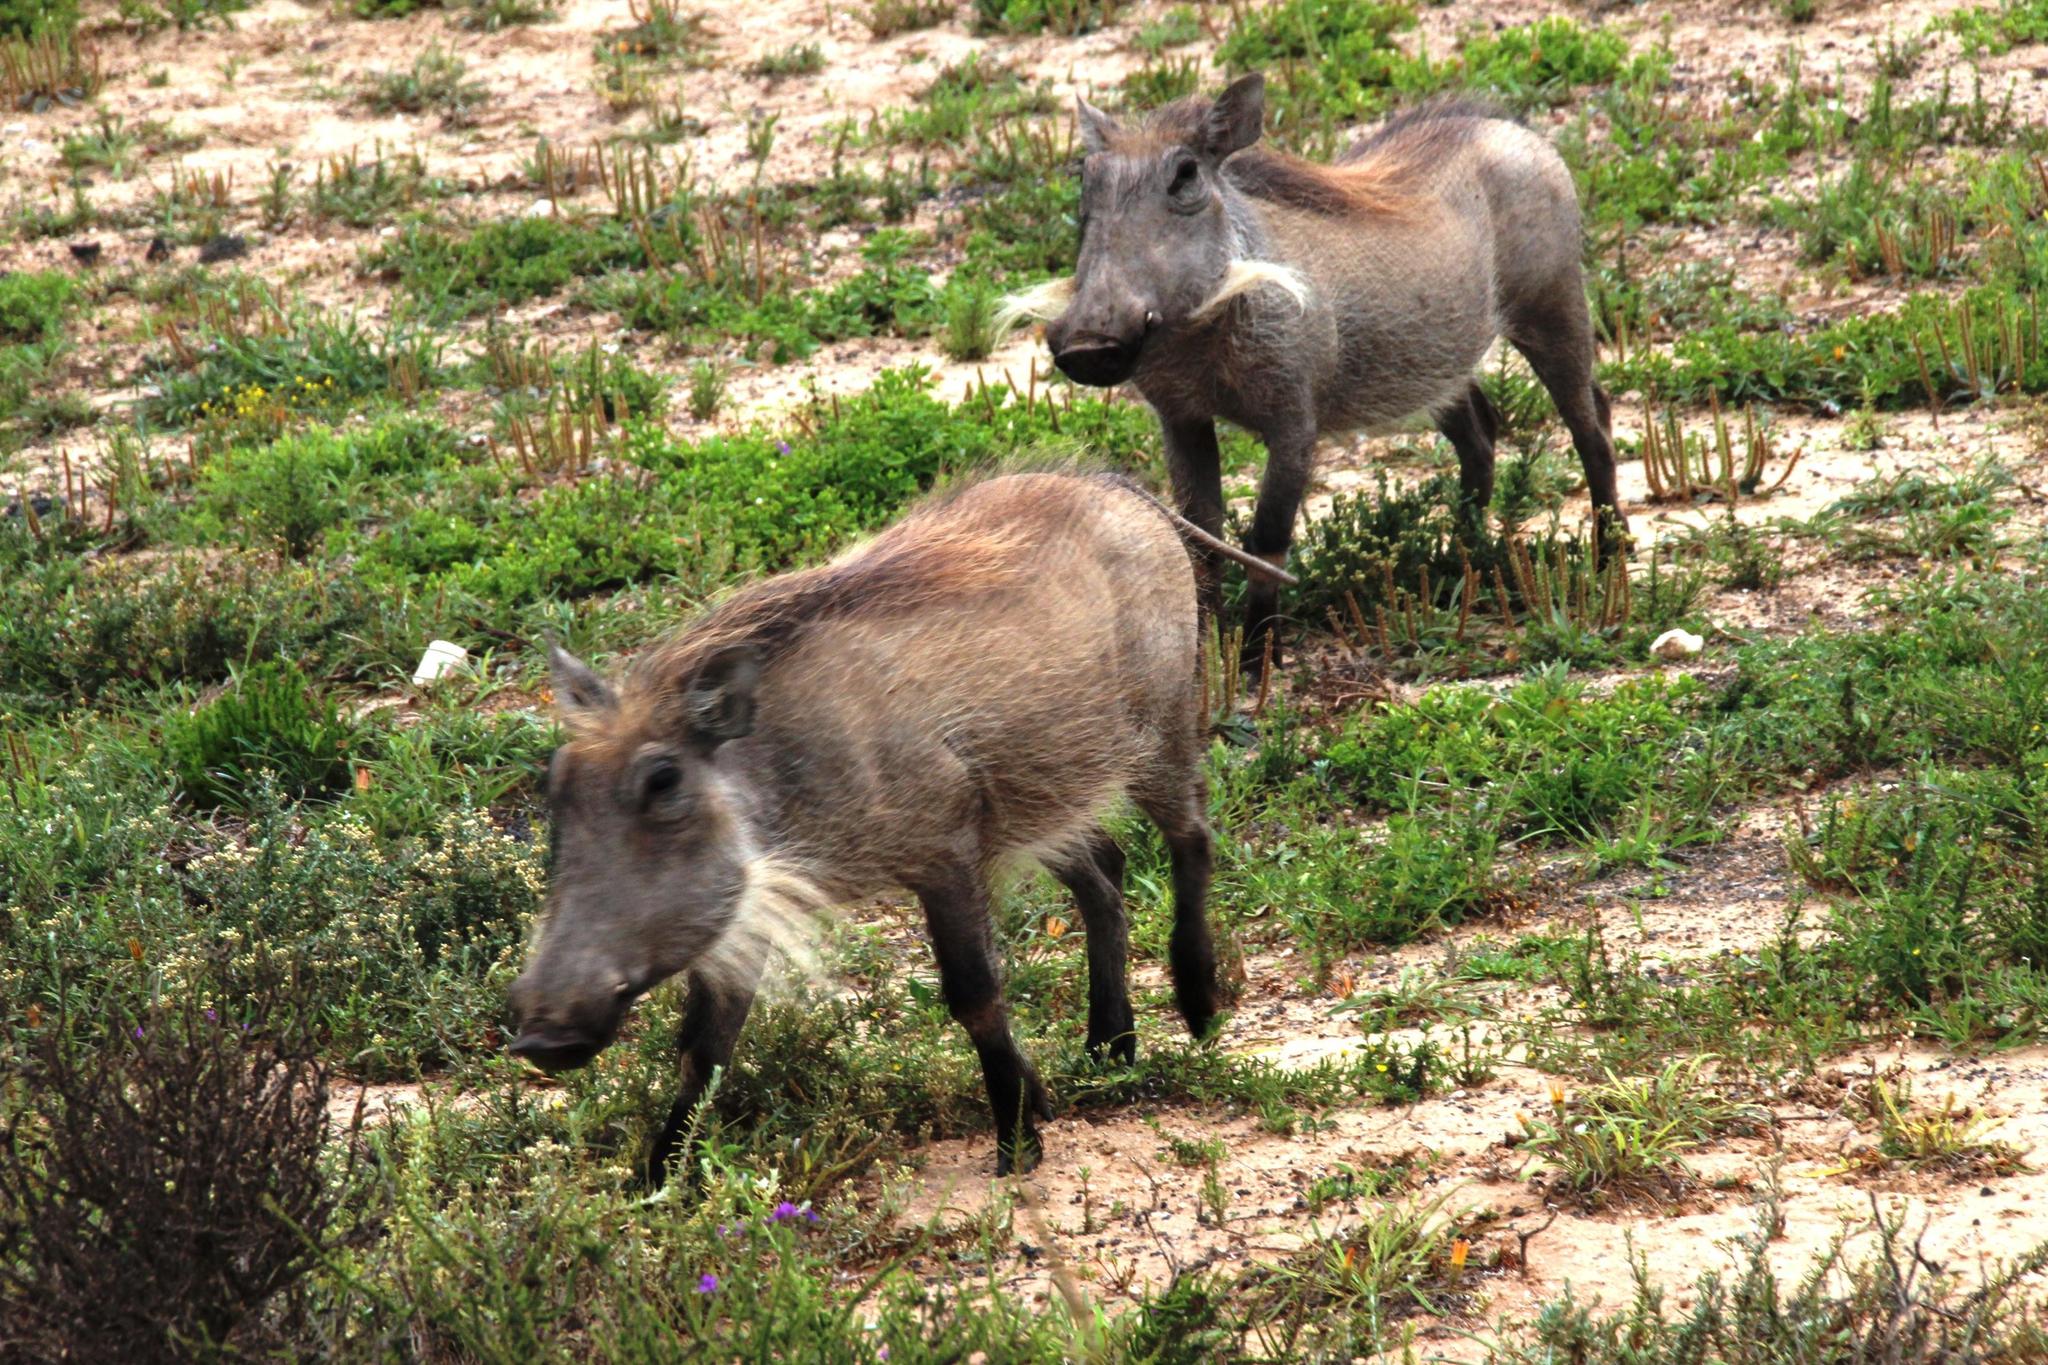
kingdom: Animalia
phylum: Chordata
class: Mammalia
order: Artiodactyla
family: Suidae
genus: Phacochoerus
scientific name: Phacochoerus africanus
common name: Common warthog
